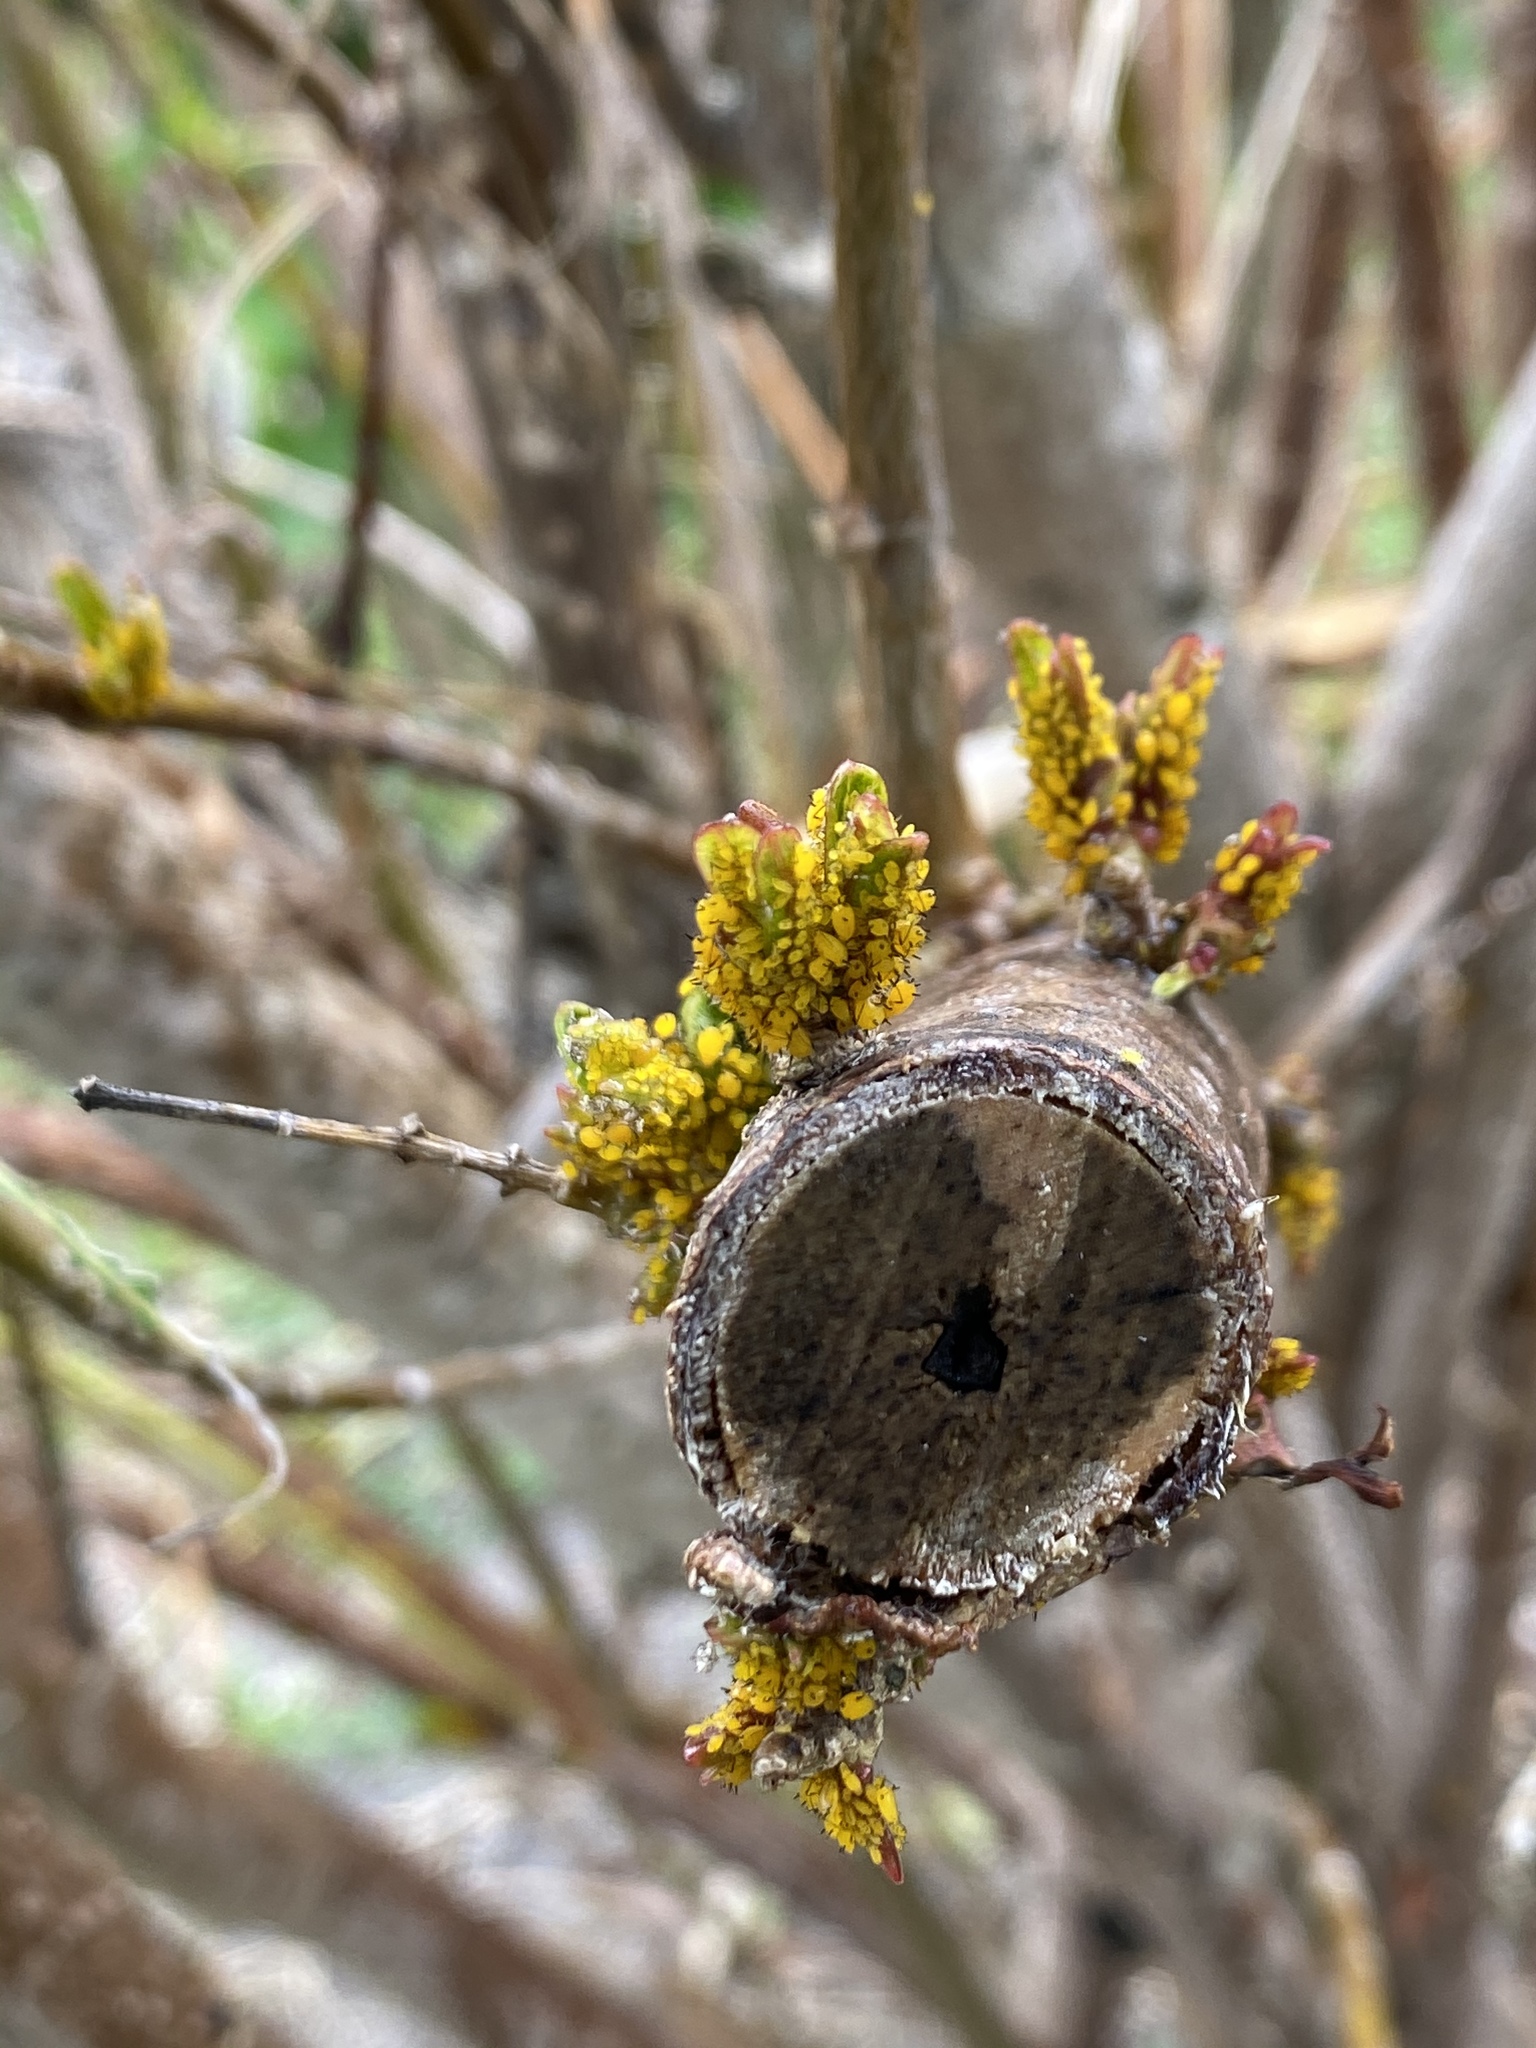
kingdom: Animalia
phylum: Arthropoda
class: Insecta
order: Hemiptera
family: Aphididae
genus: Aphis
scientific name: Aphis nerii
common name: Oleander aphid
